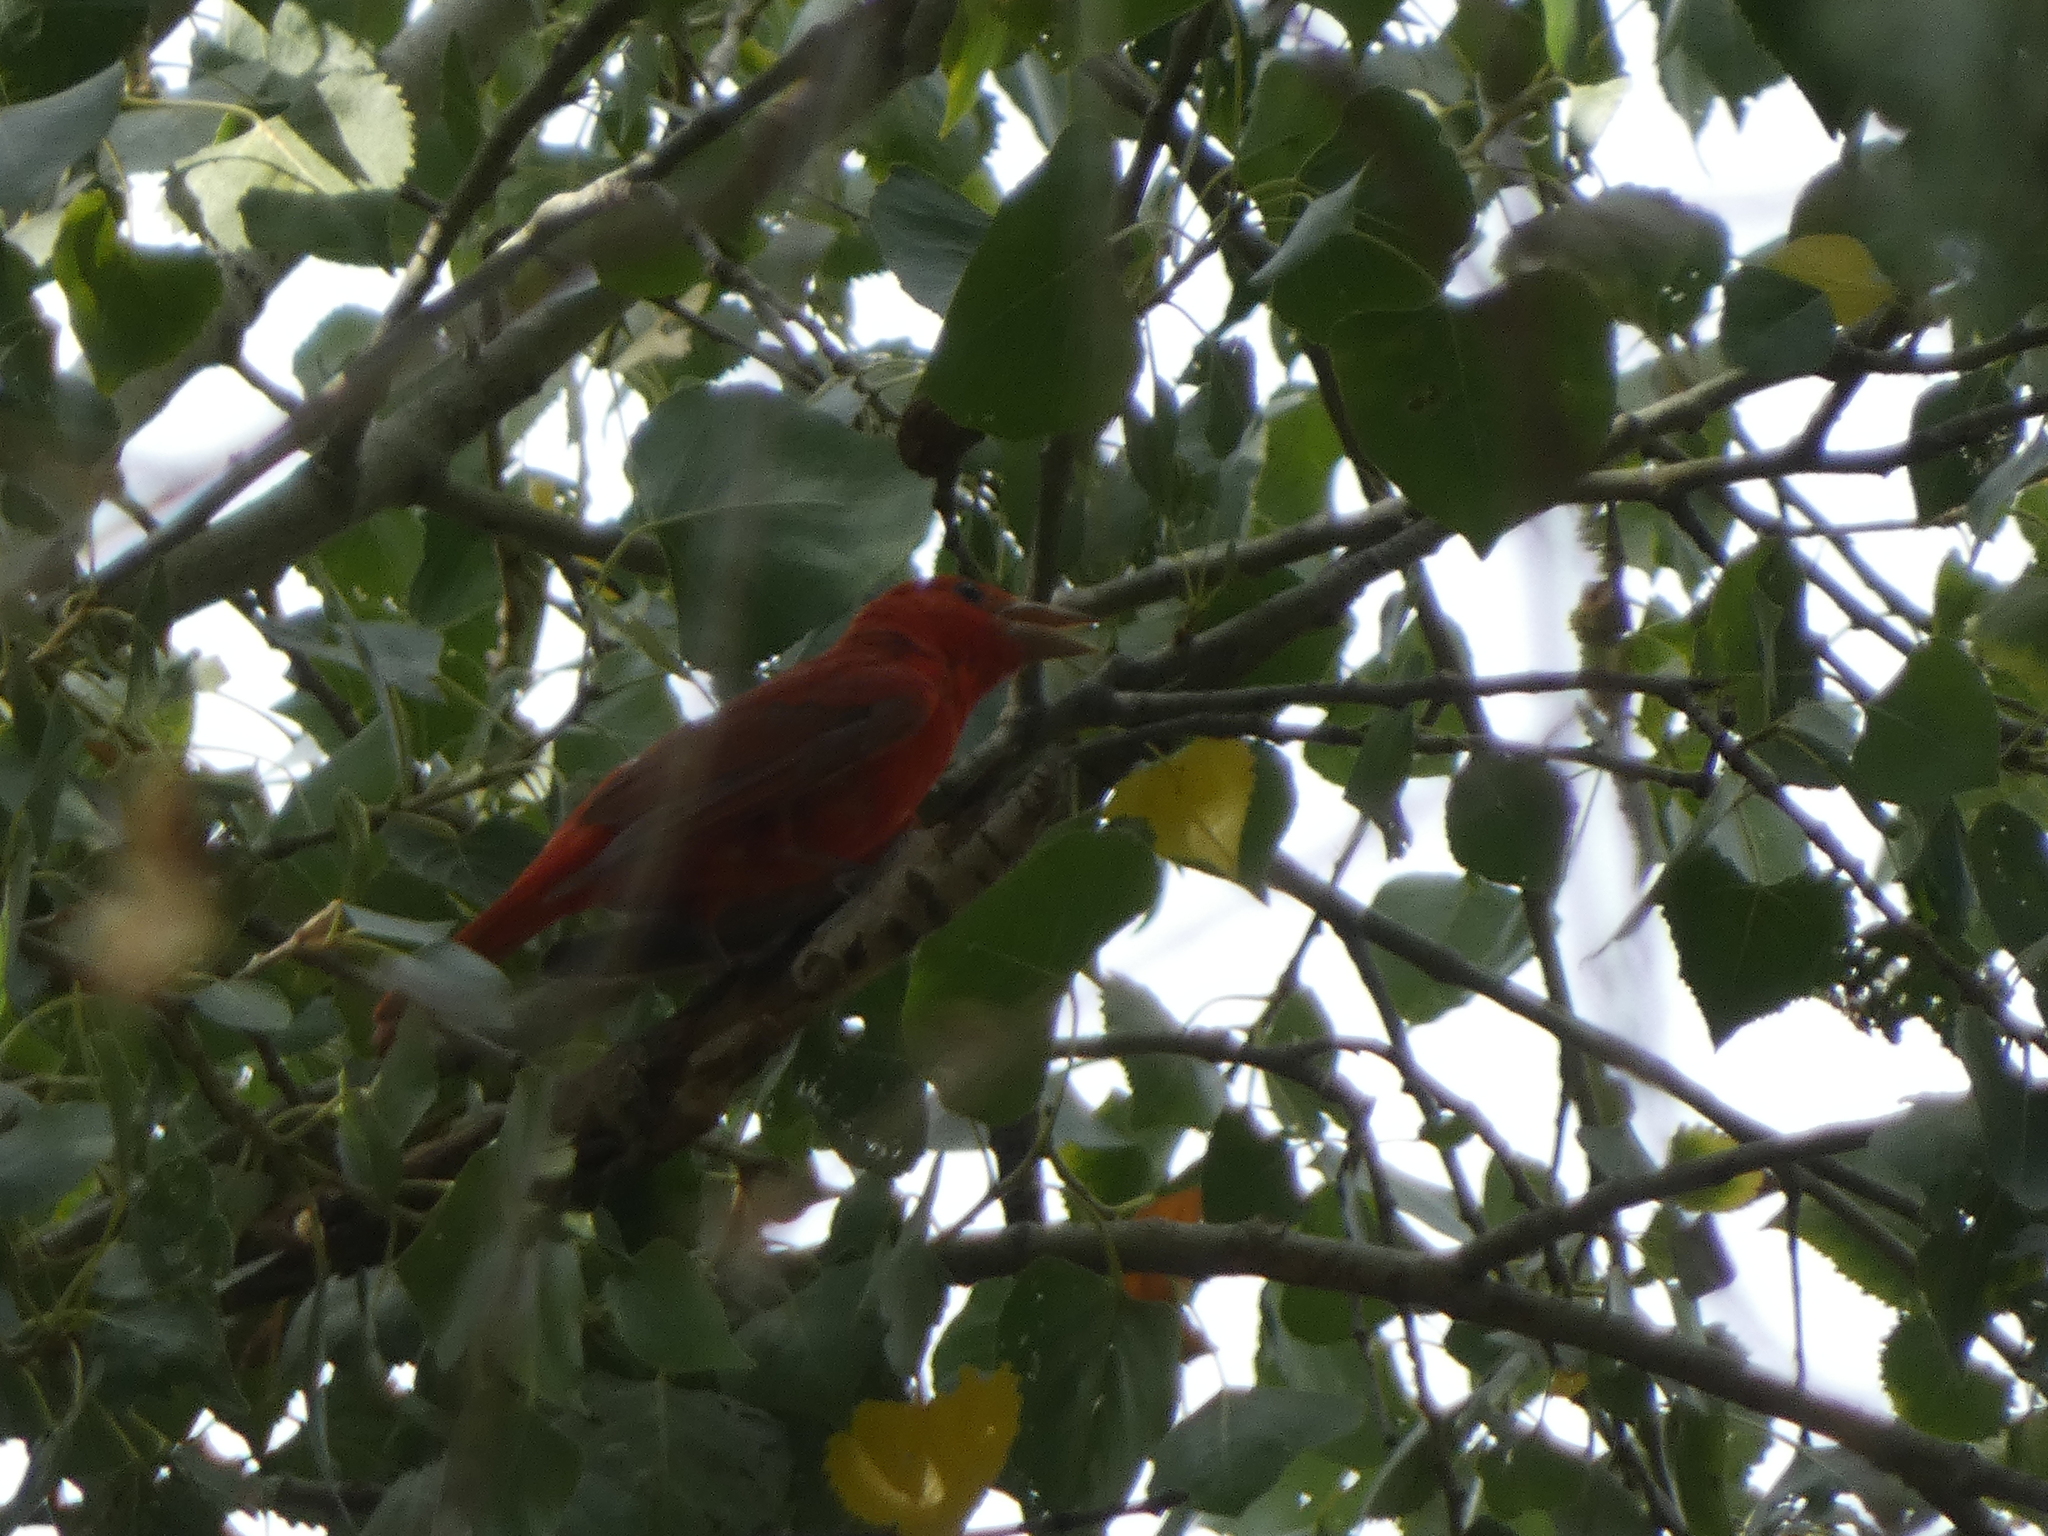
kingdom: Animalia
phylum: Chordata
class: Aves
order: Passeriformes
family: Cardinalidae
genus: Piranga
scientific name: Piranga rubra
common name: Summer tanager
